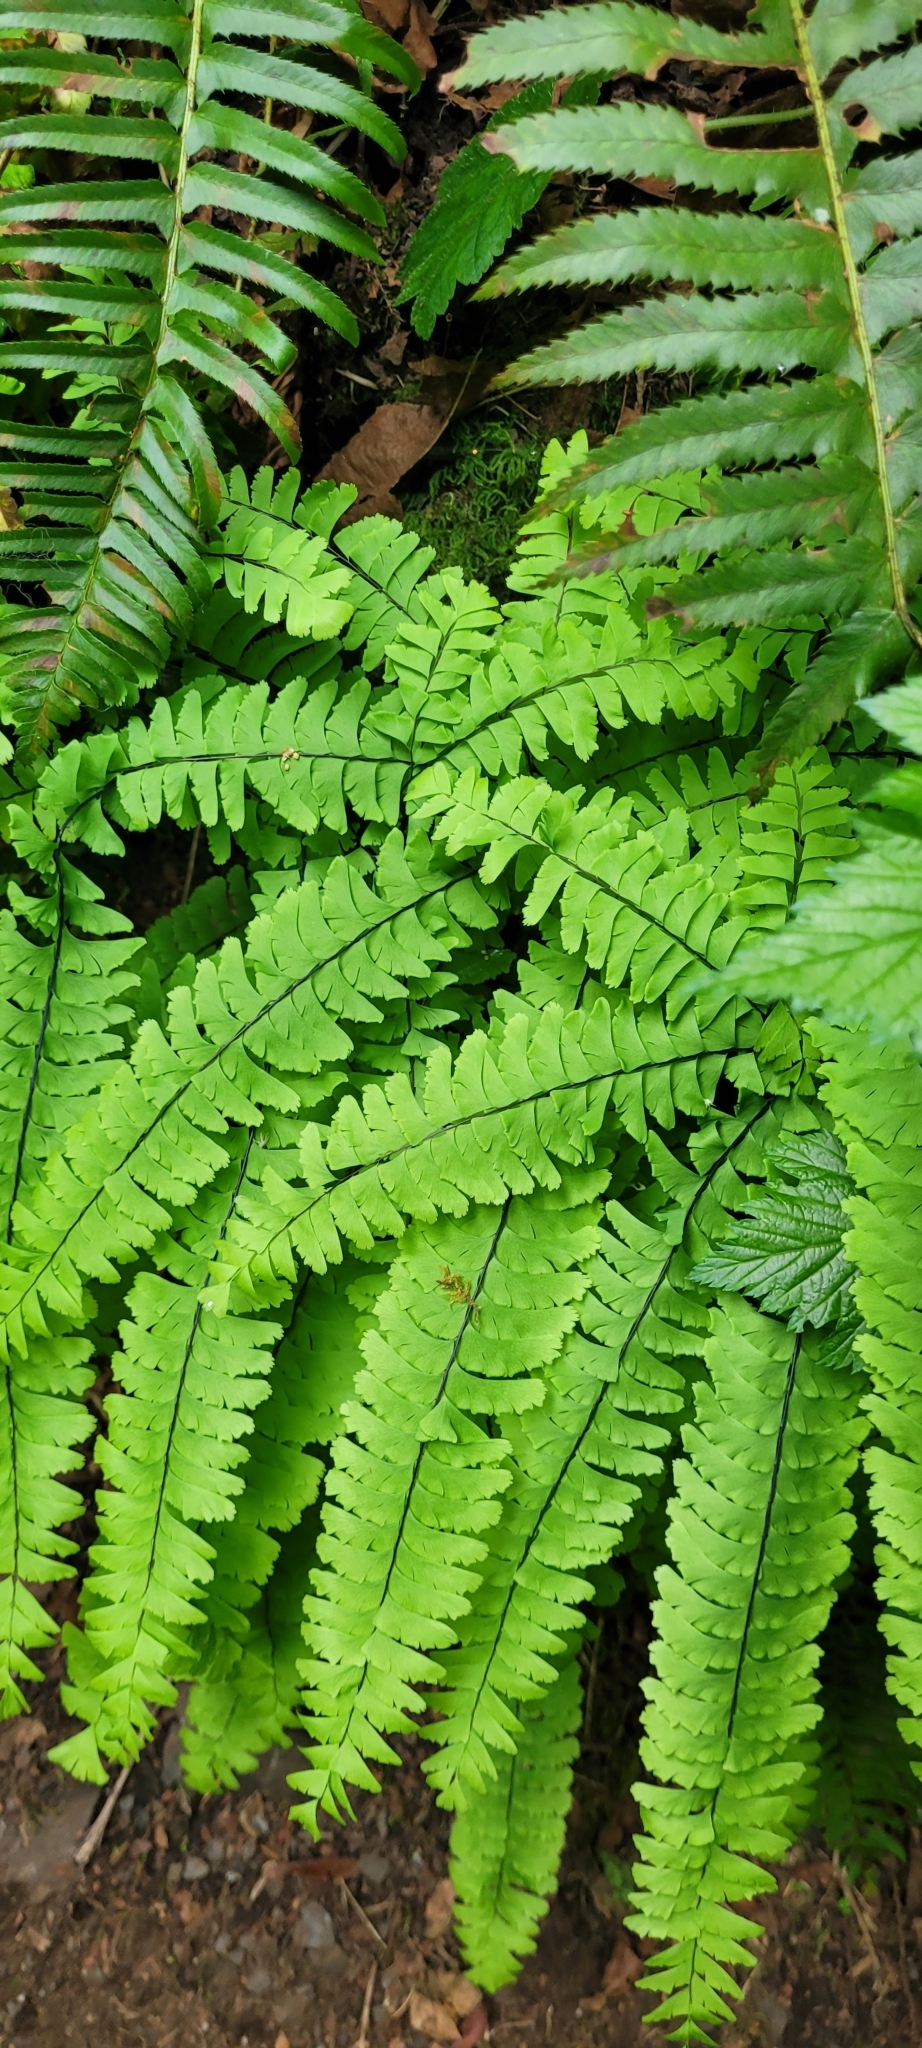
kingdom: Plantae
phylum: Tracheophyta
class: Polypodiopsida
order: Polypodiales
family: Pteridaceae
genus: Adiantum
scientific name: Adiantum aleuticum
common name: Aleutian maidenhair fern
